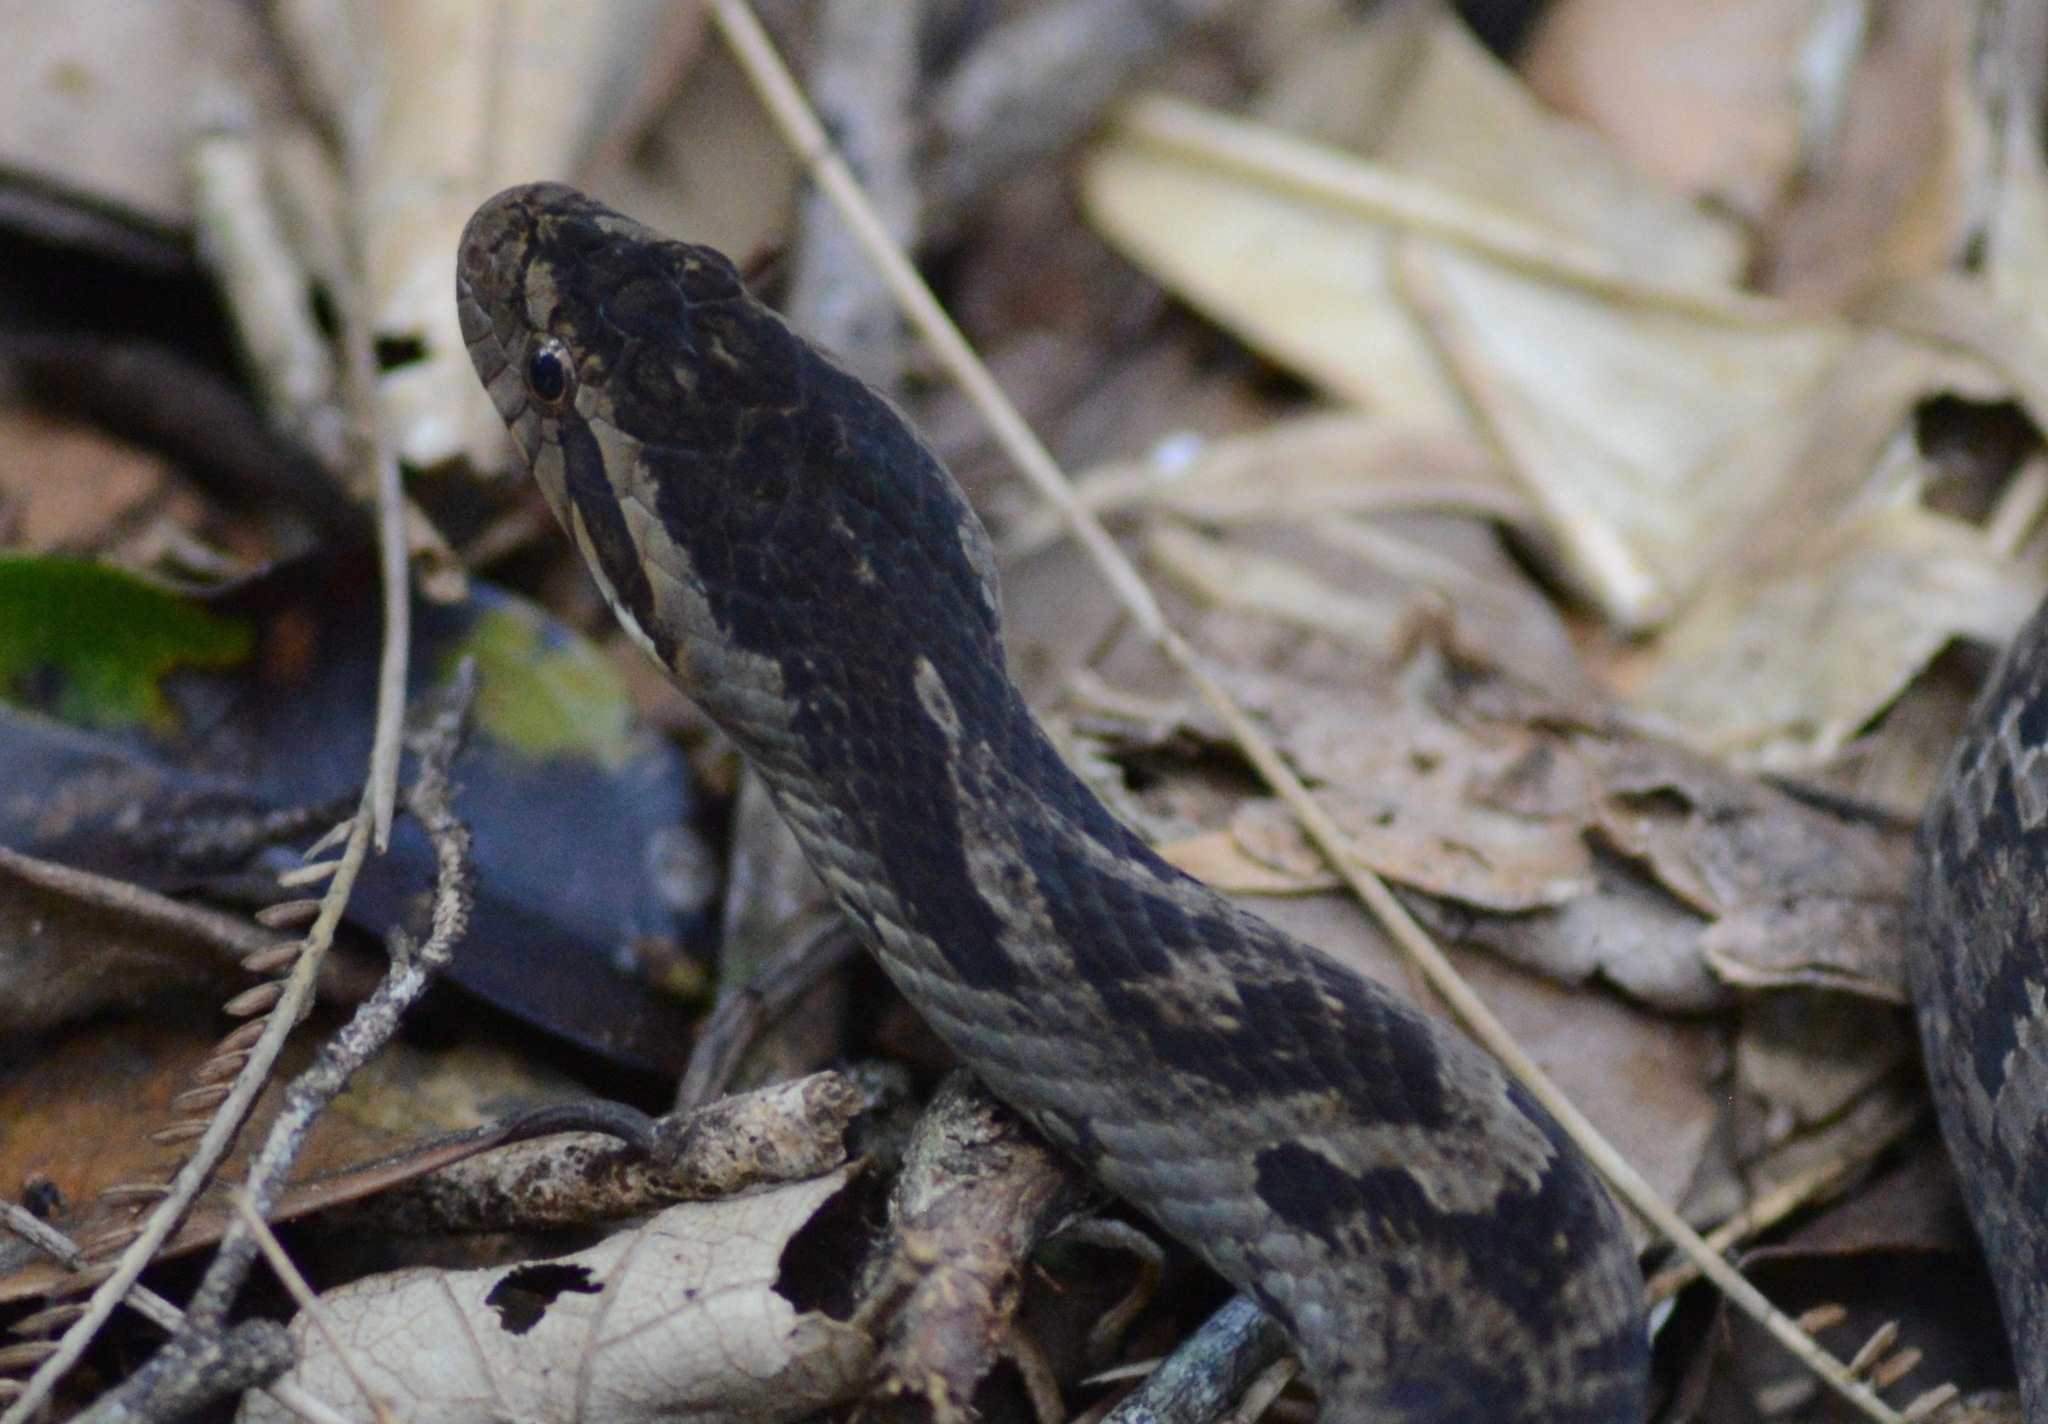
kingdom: Animalia
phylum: Chordata
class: Squamata
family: Colubridae
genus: Xenodon
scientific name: Xenodon neuwiedii
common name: Neuwied's false fer-de-lance
